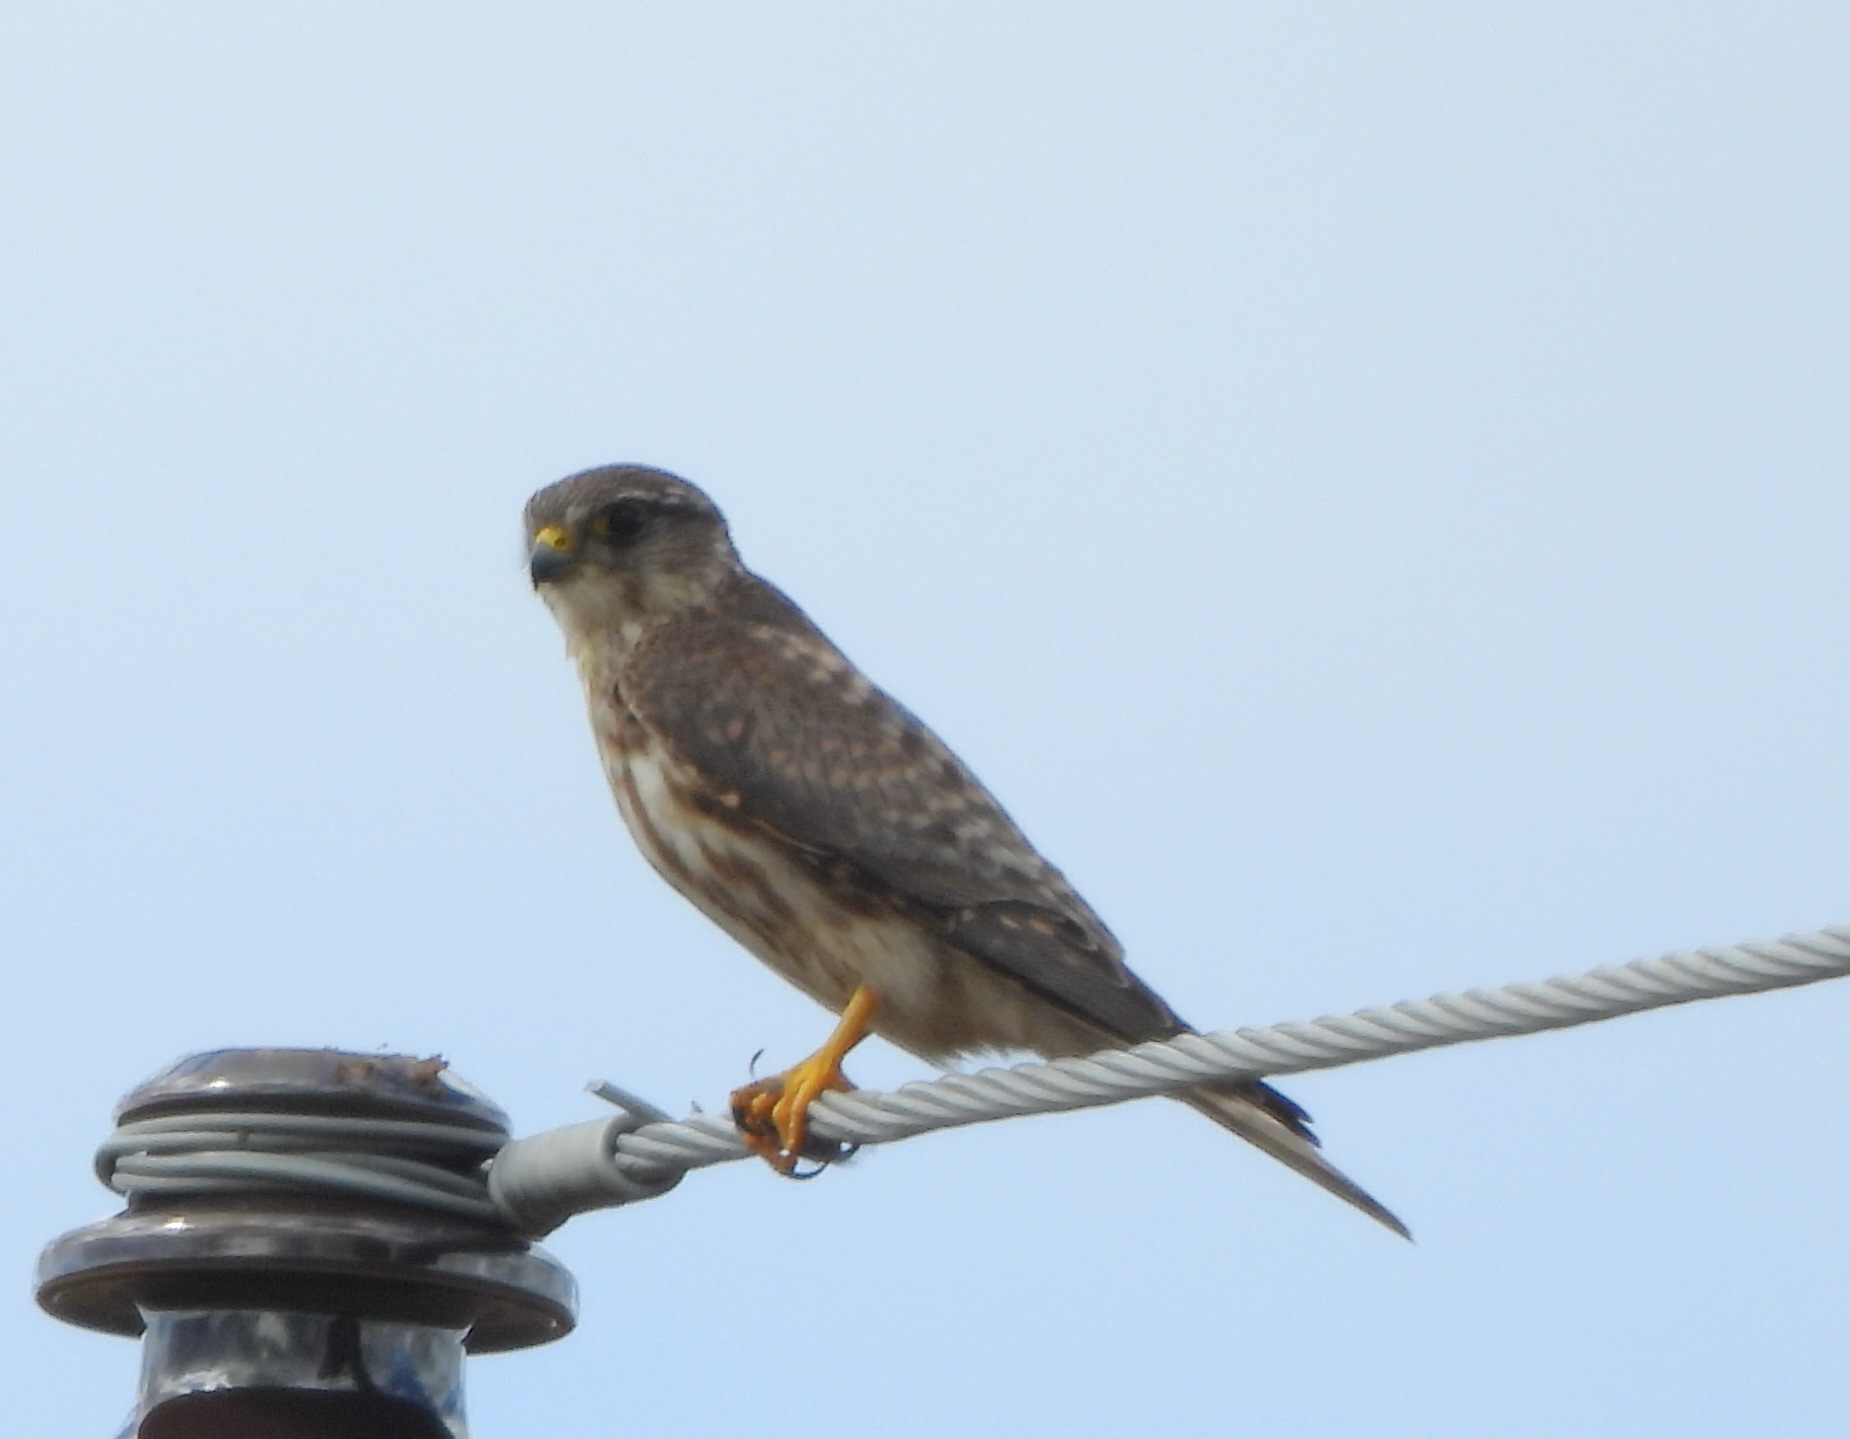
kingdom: Animalia
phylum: Chordata
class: Aves
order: Falconiformes
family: Falconidae
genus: Falco
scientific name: Falco columbarius
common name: Merlin
